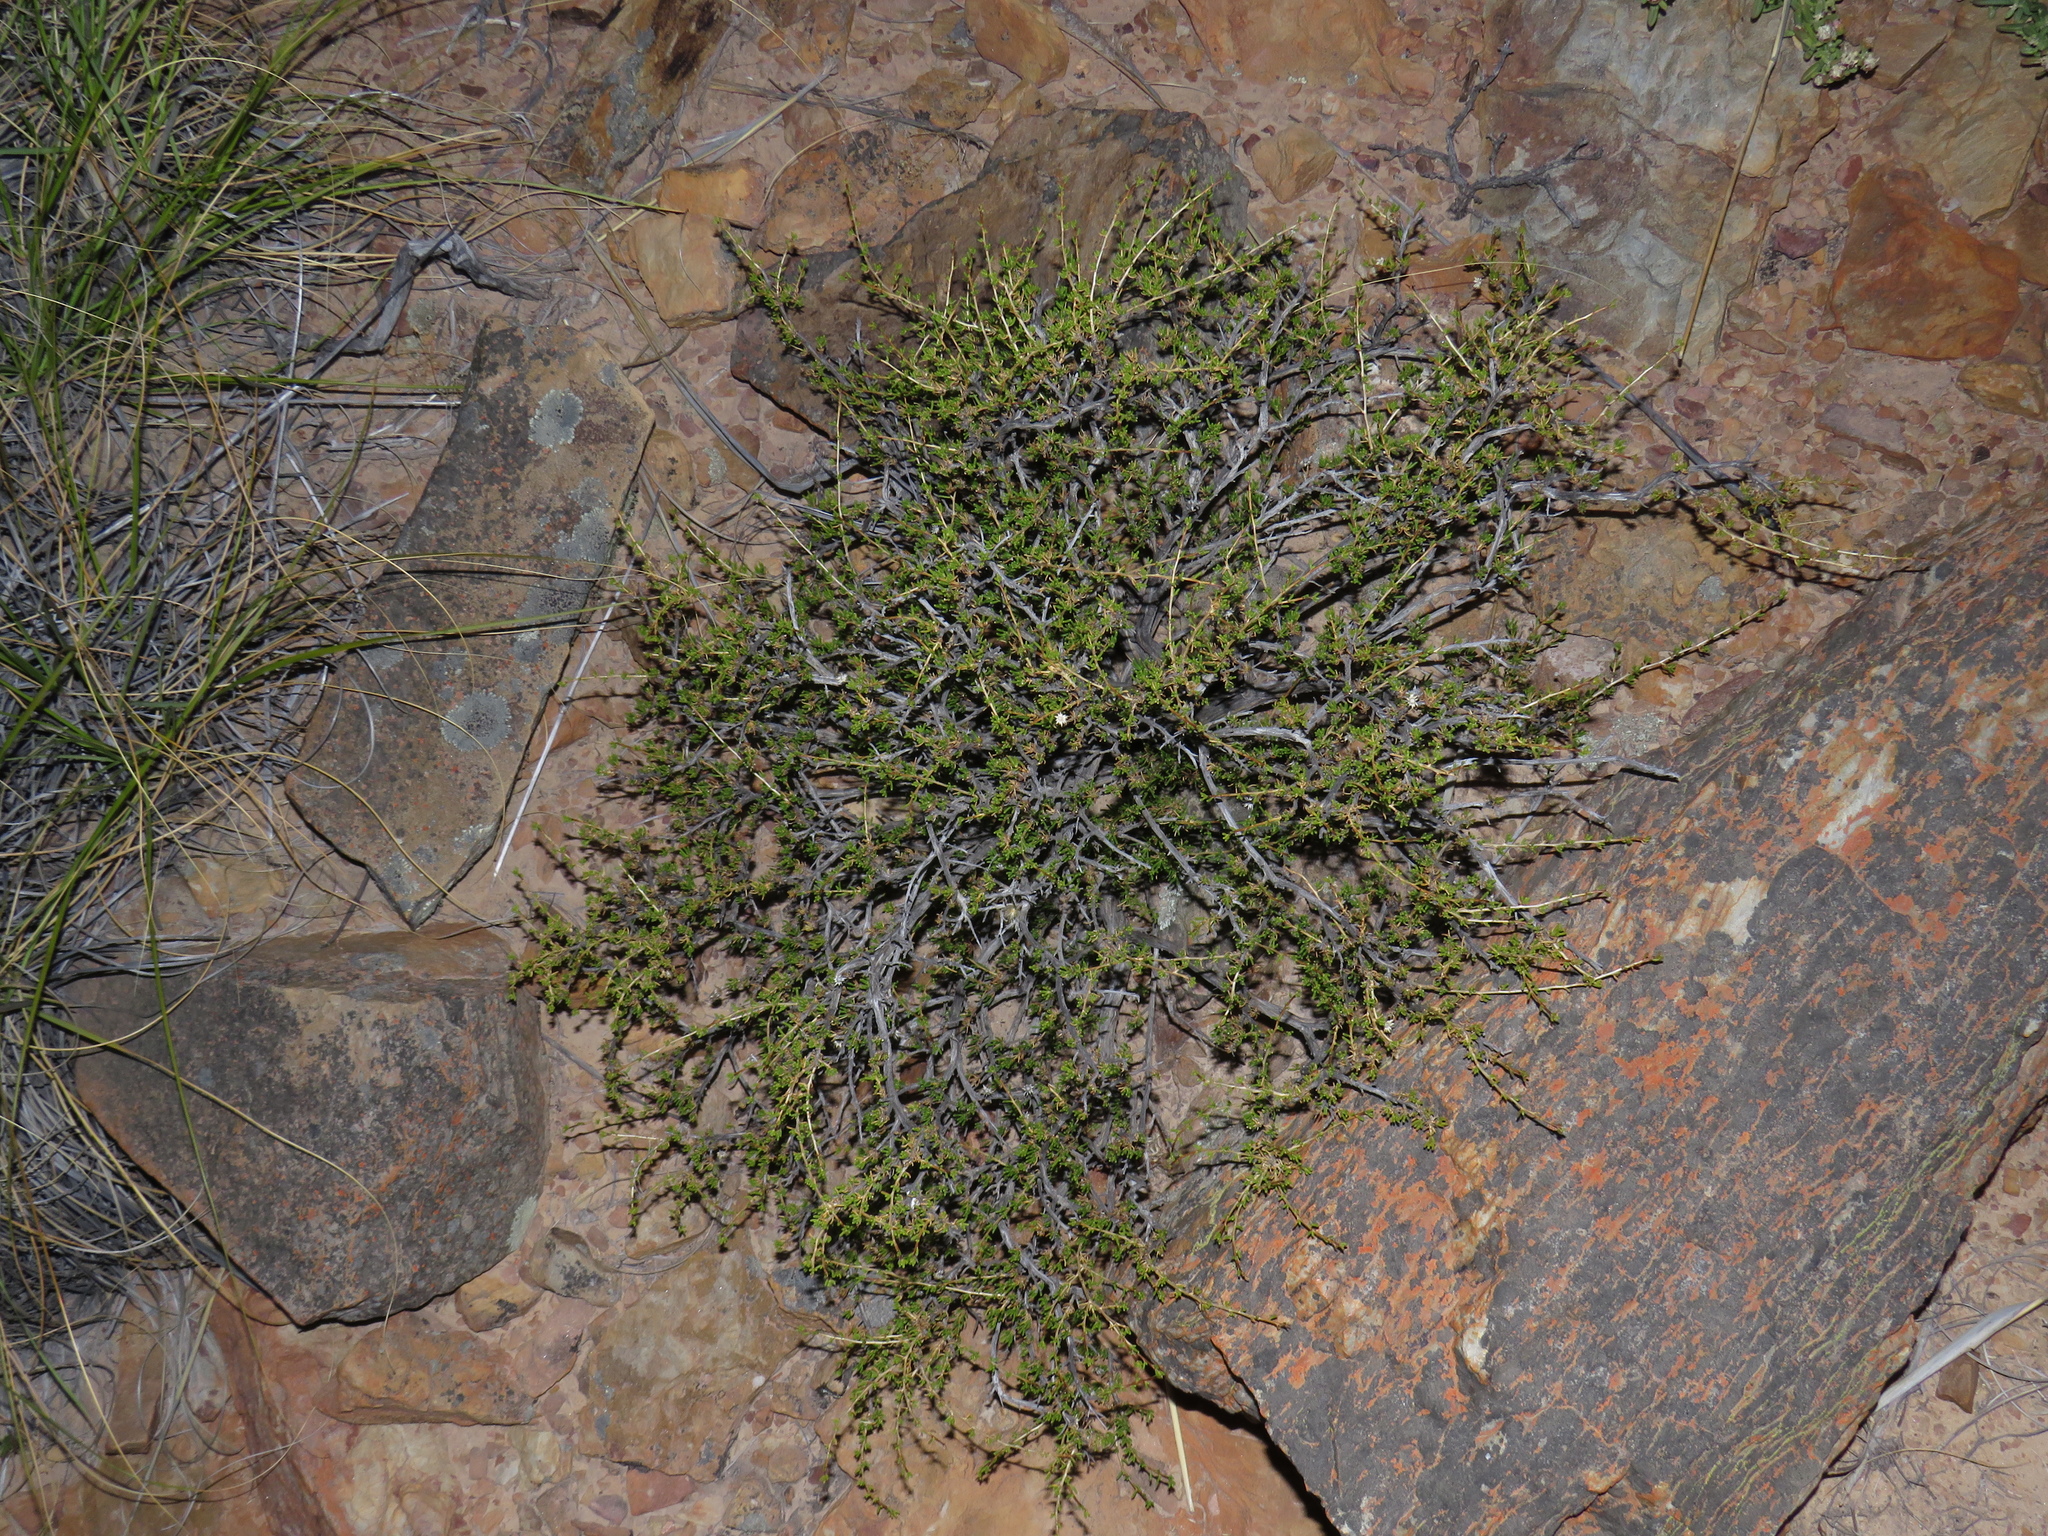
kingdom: Plantae
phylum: Tracheophyta
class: Magnoliopsida
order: Asterales
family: Asteraceae
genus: Felicia
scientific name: Felicia filifolia
